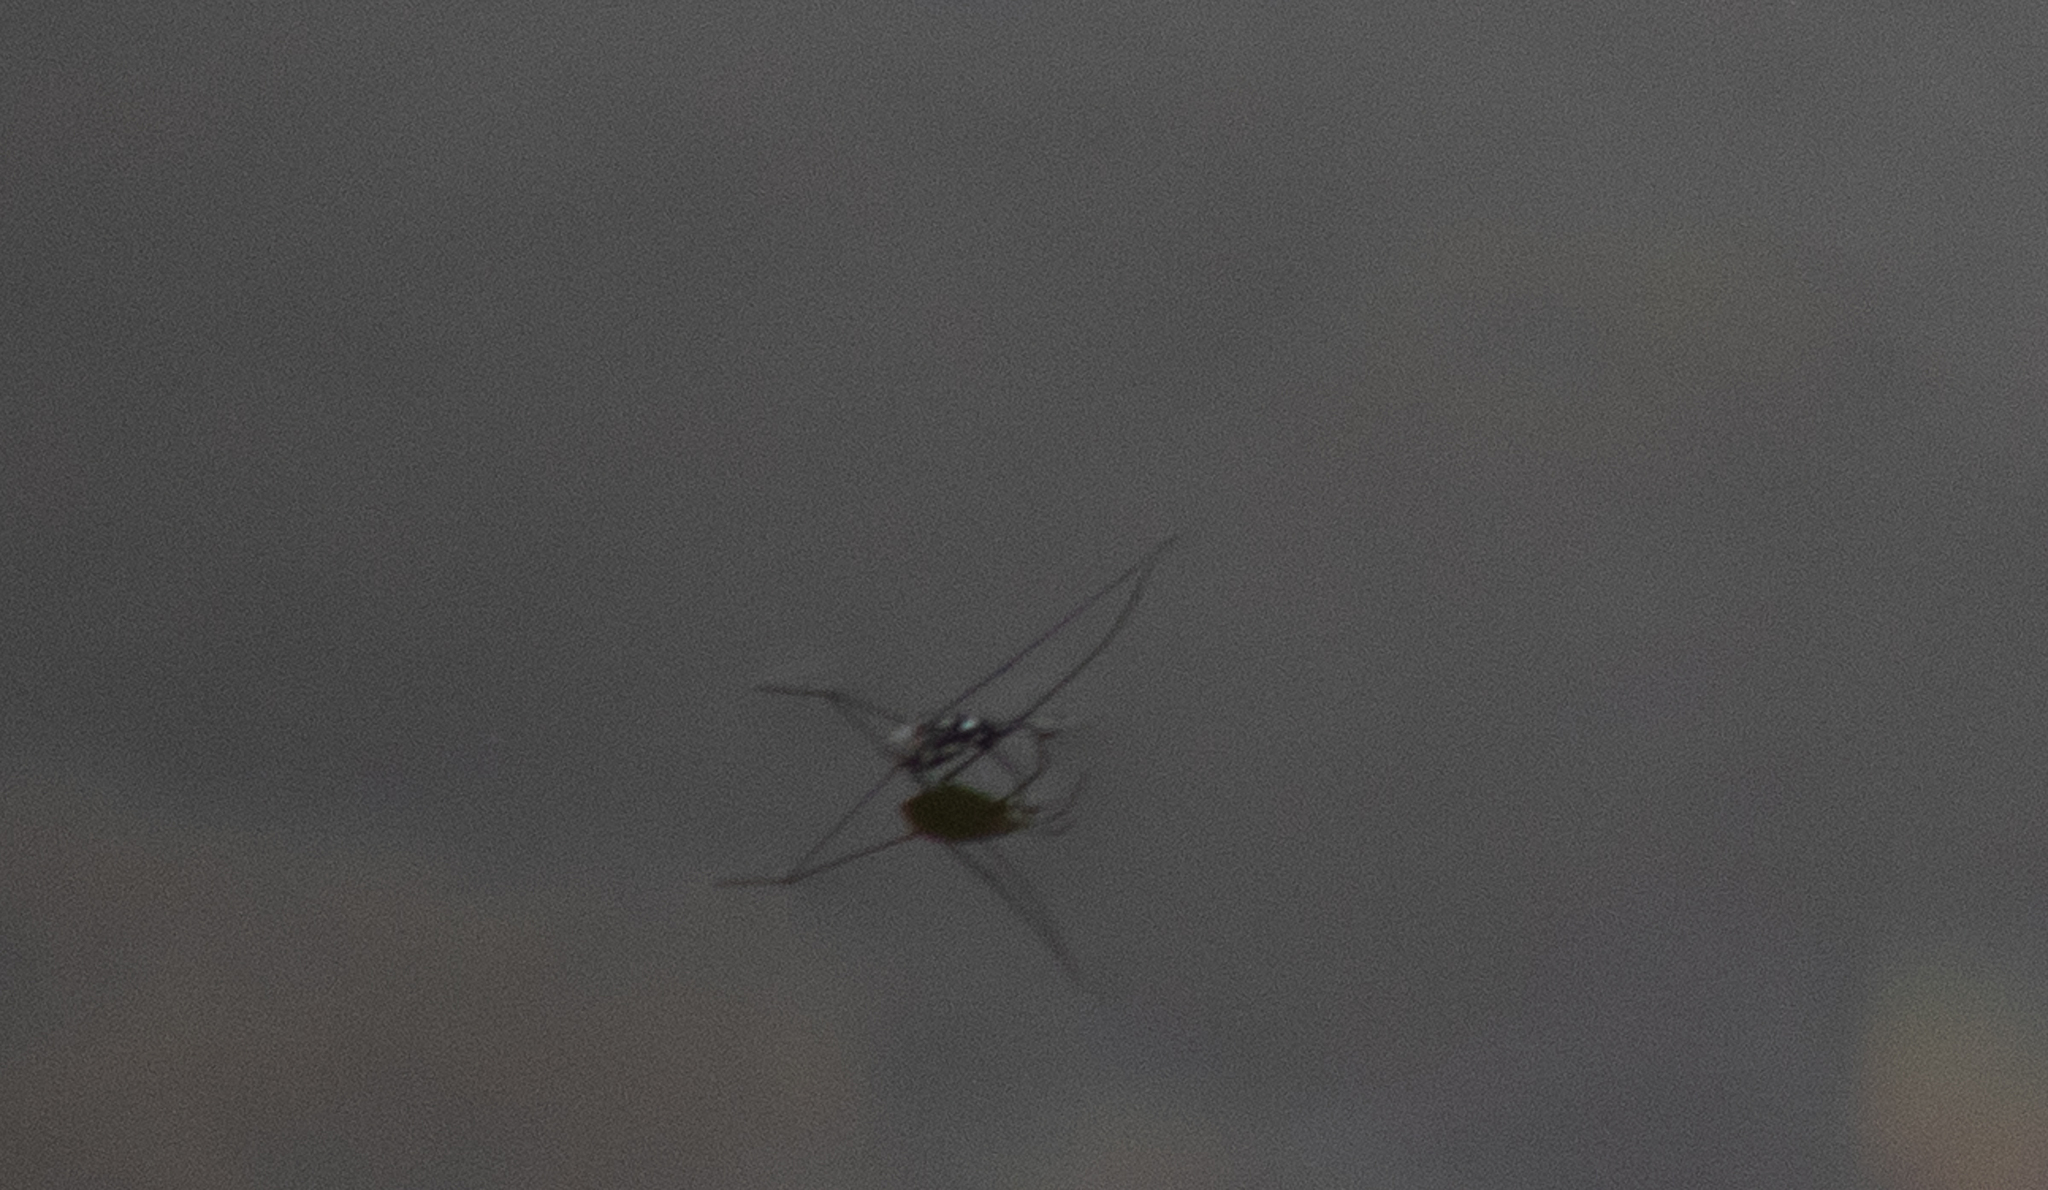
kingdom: Animalia
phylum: Arthropoda
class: Insecta
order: Hemiptera
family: Gerridae
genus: Metrobates
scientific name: Metrobates hesperius
